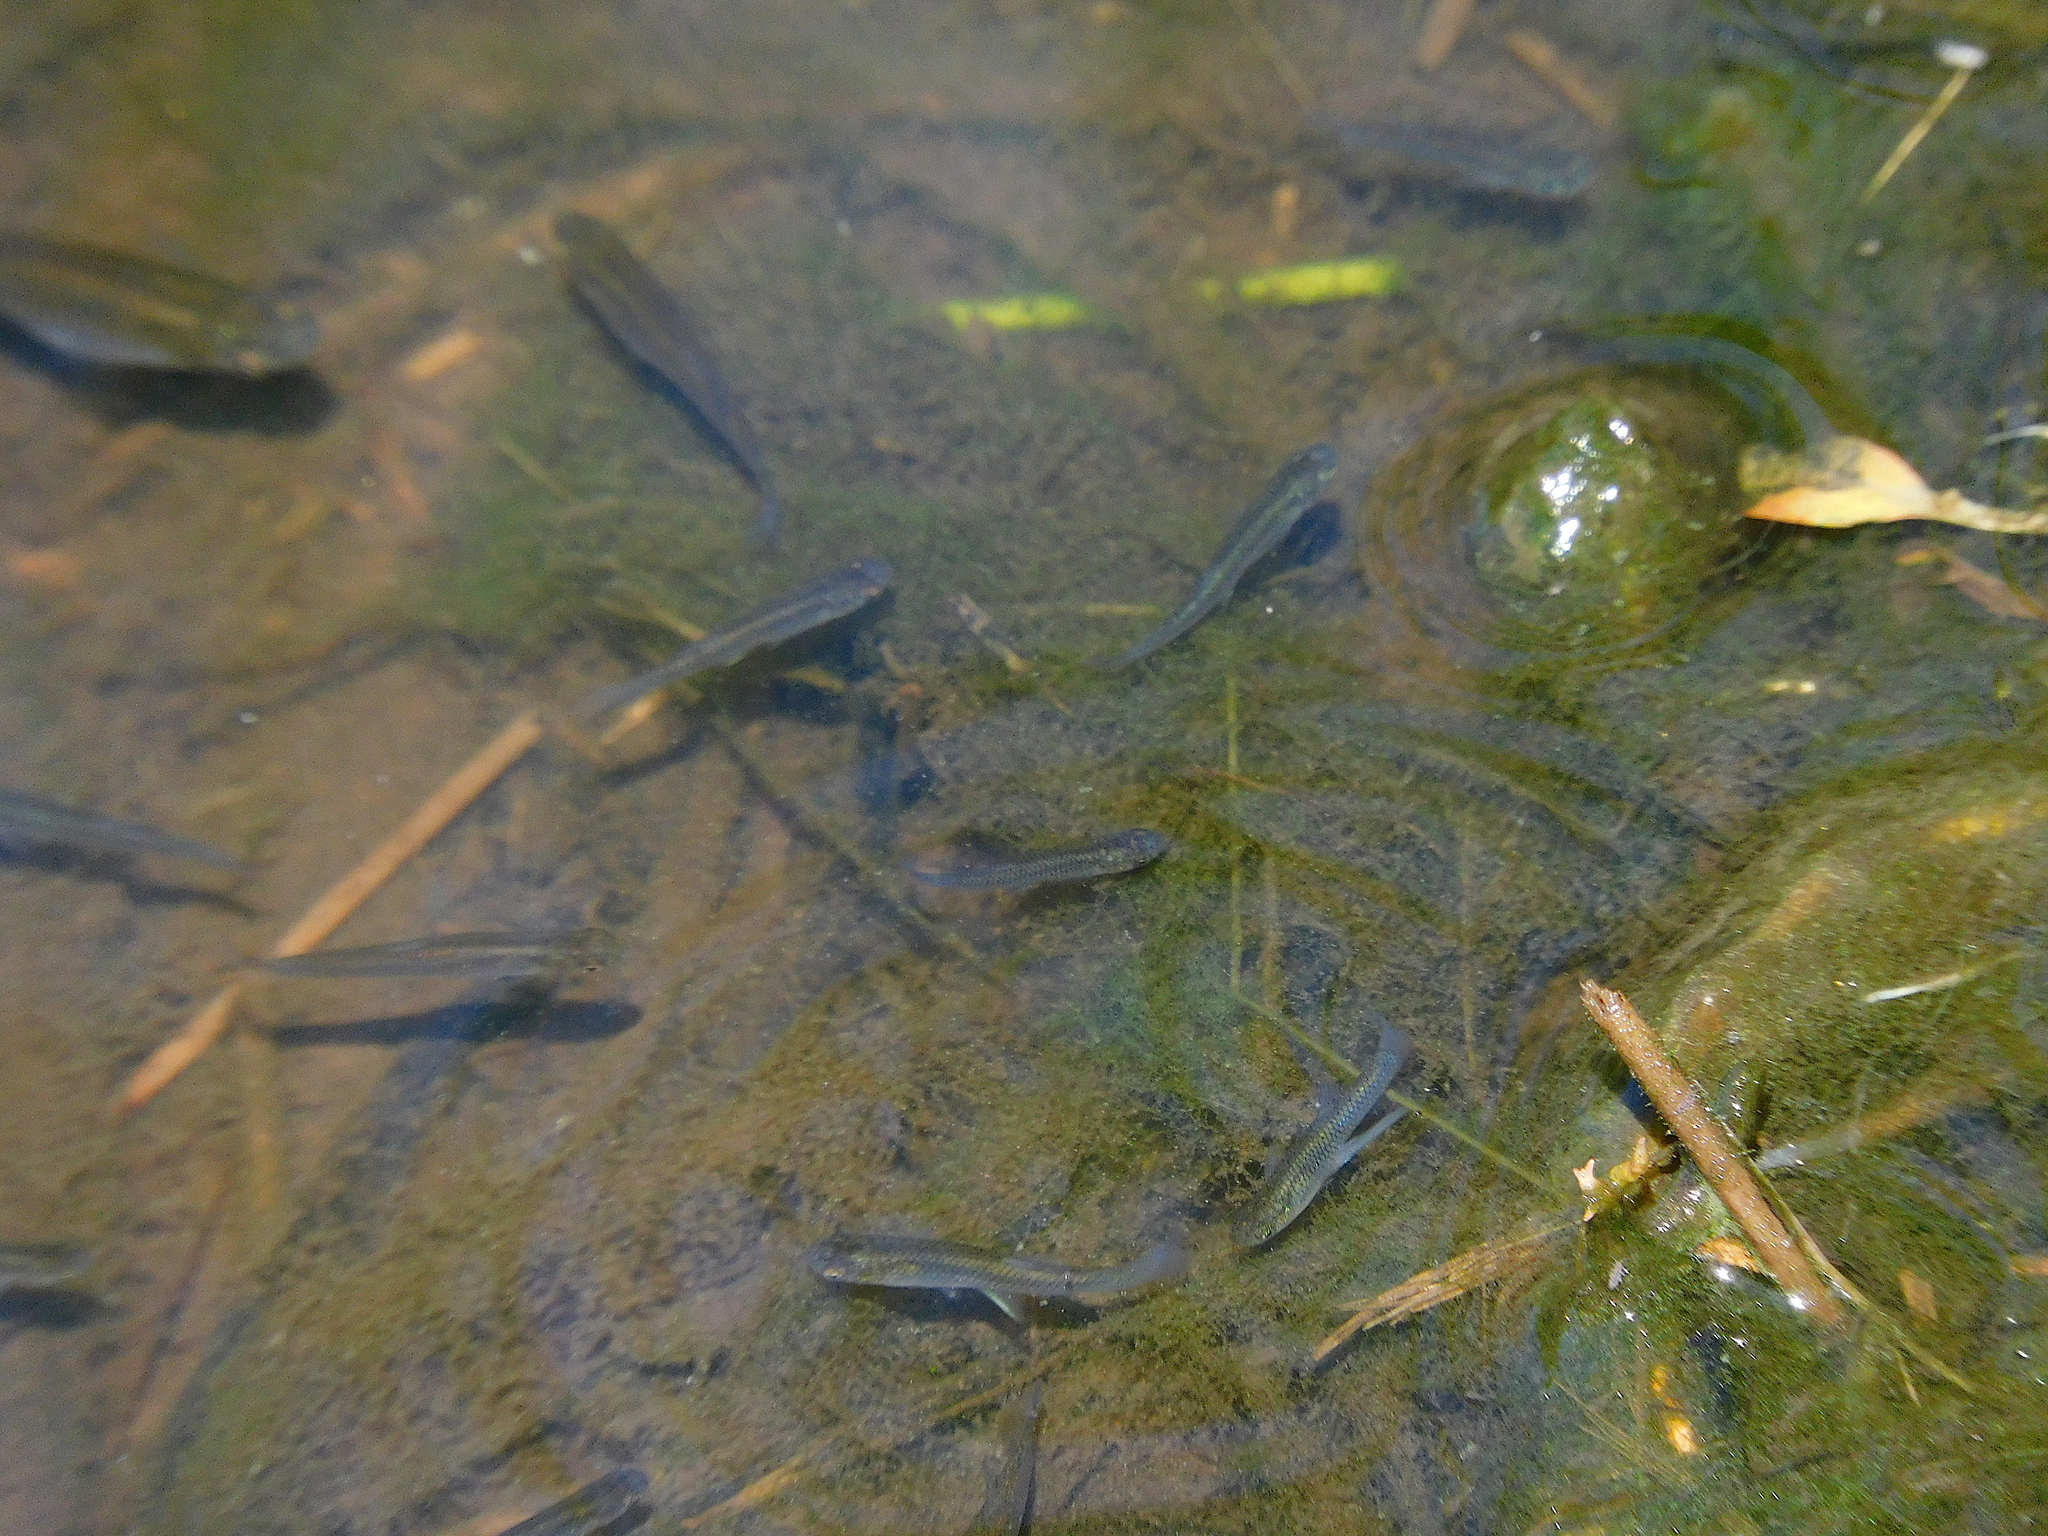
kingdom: Animalia
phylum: Chordata
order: Cyprinodontiformes
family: Poeciliidae
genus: Gambusia
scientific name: Gambusia affinis
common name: Mosquitofish
